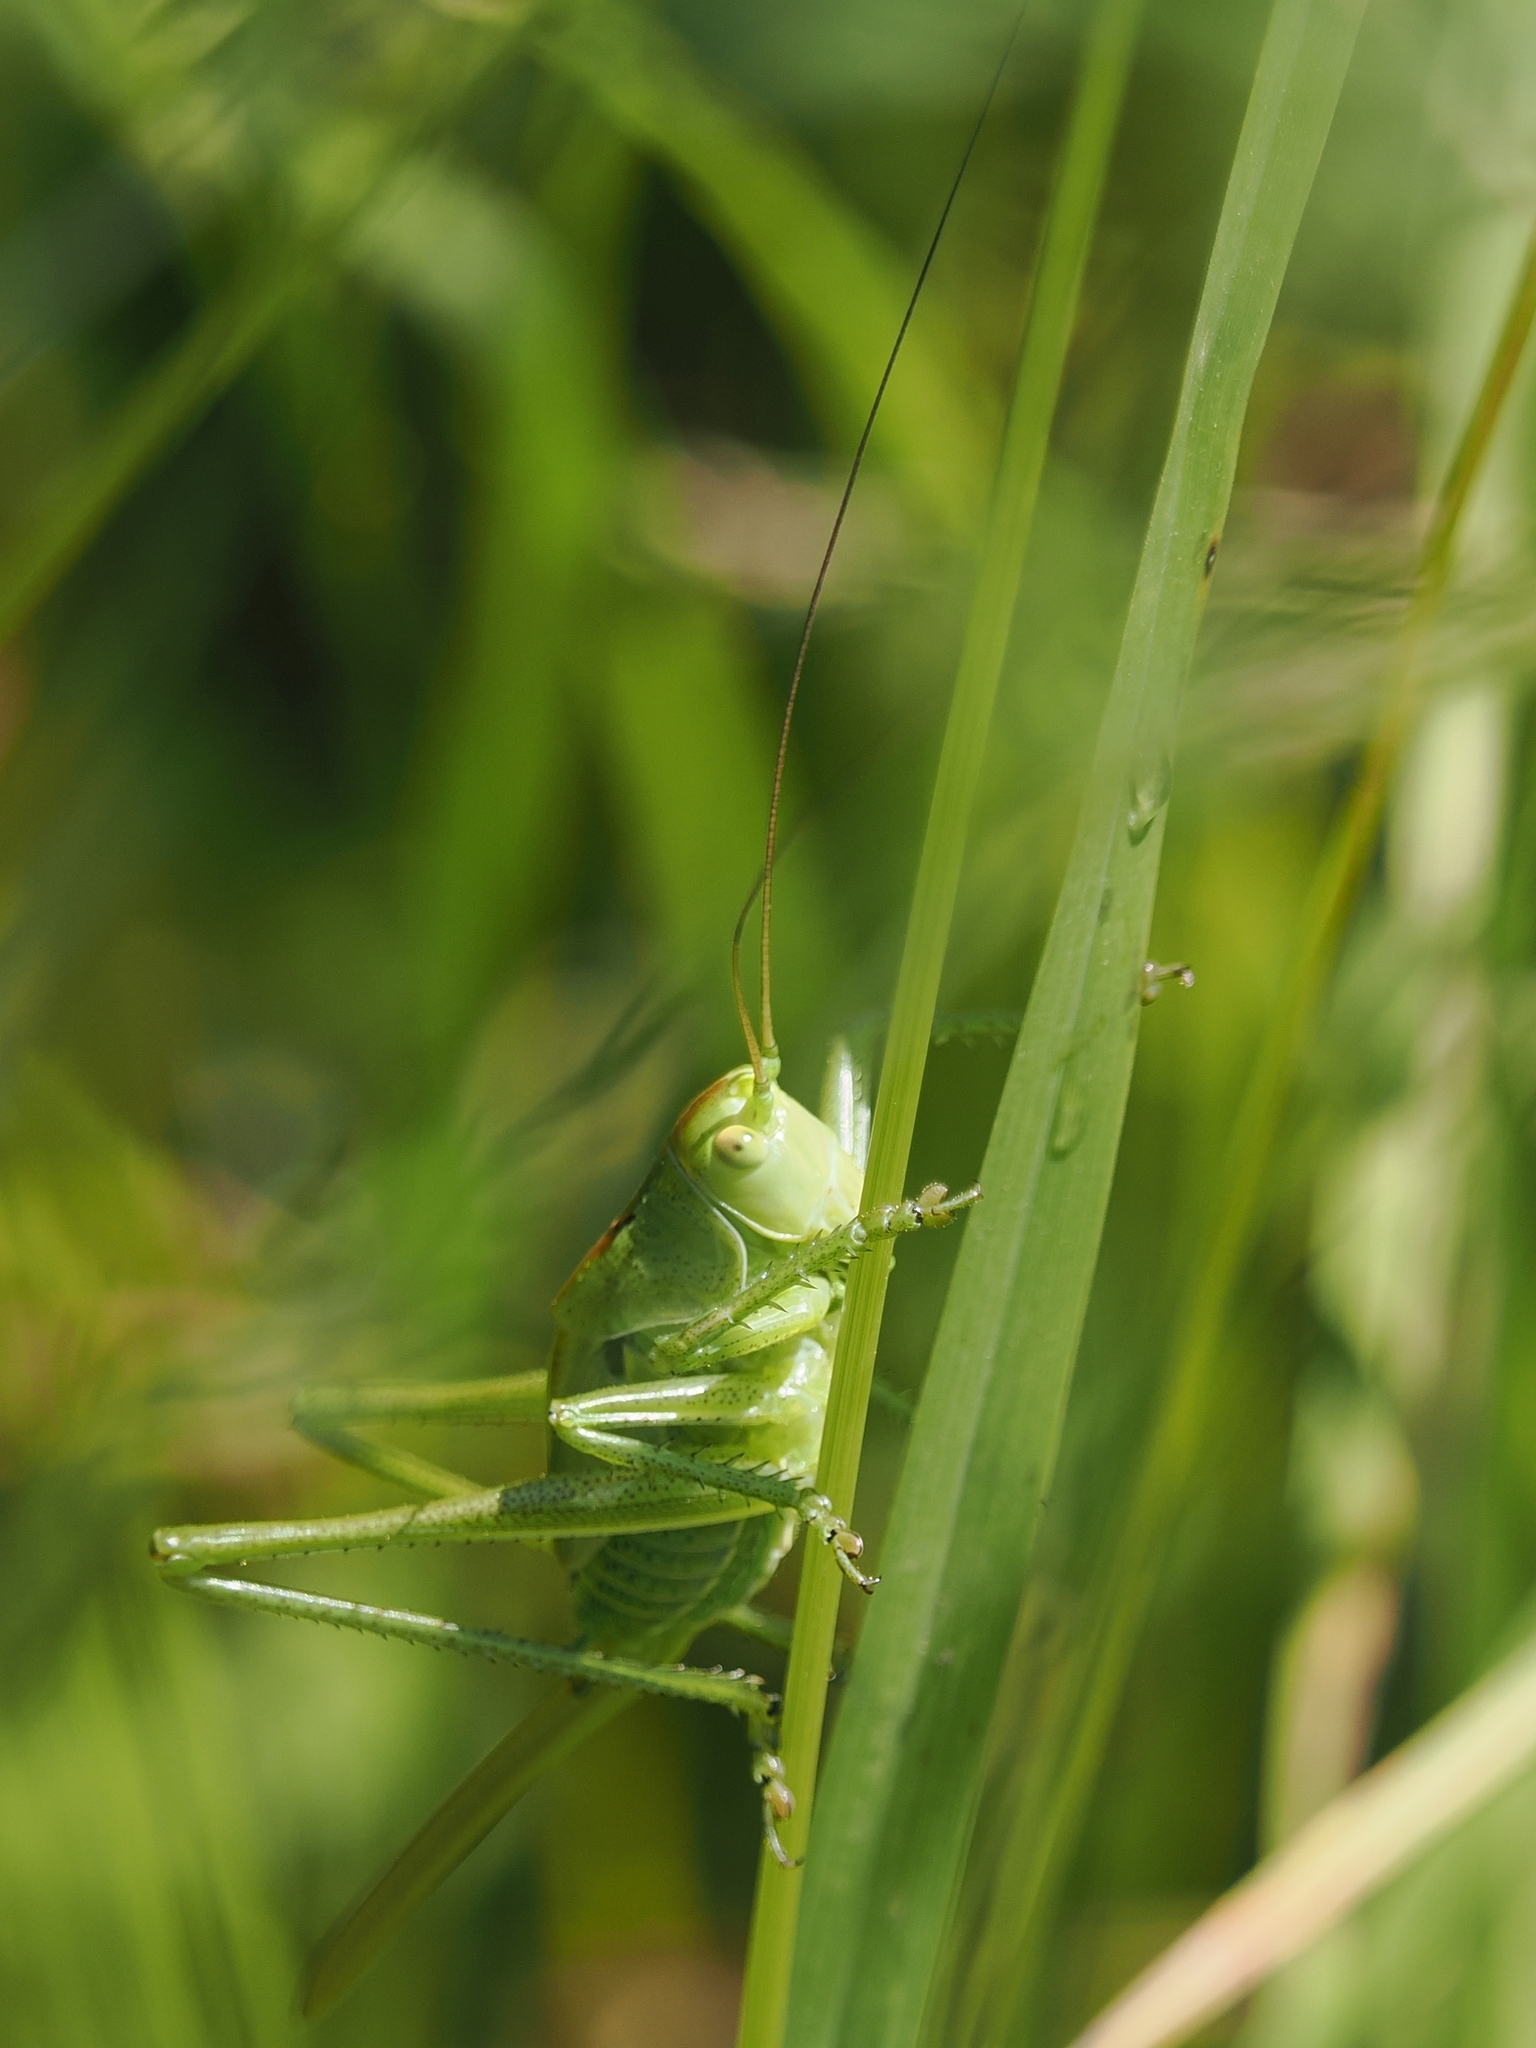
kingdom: Animalia
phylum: Arthropoda
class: Insecta
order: Orthoptera
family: Tettigoniidae
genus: Tettigonia
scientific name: Tettigonia viridissima
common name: Great green bush-cricket
